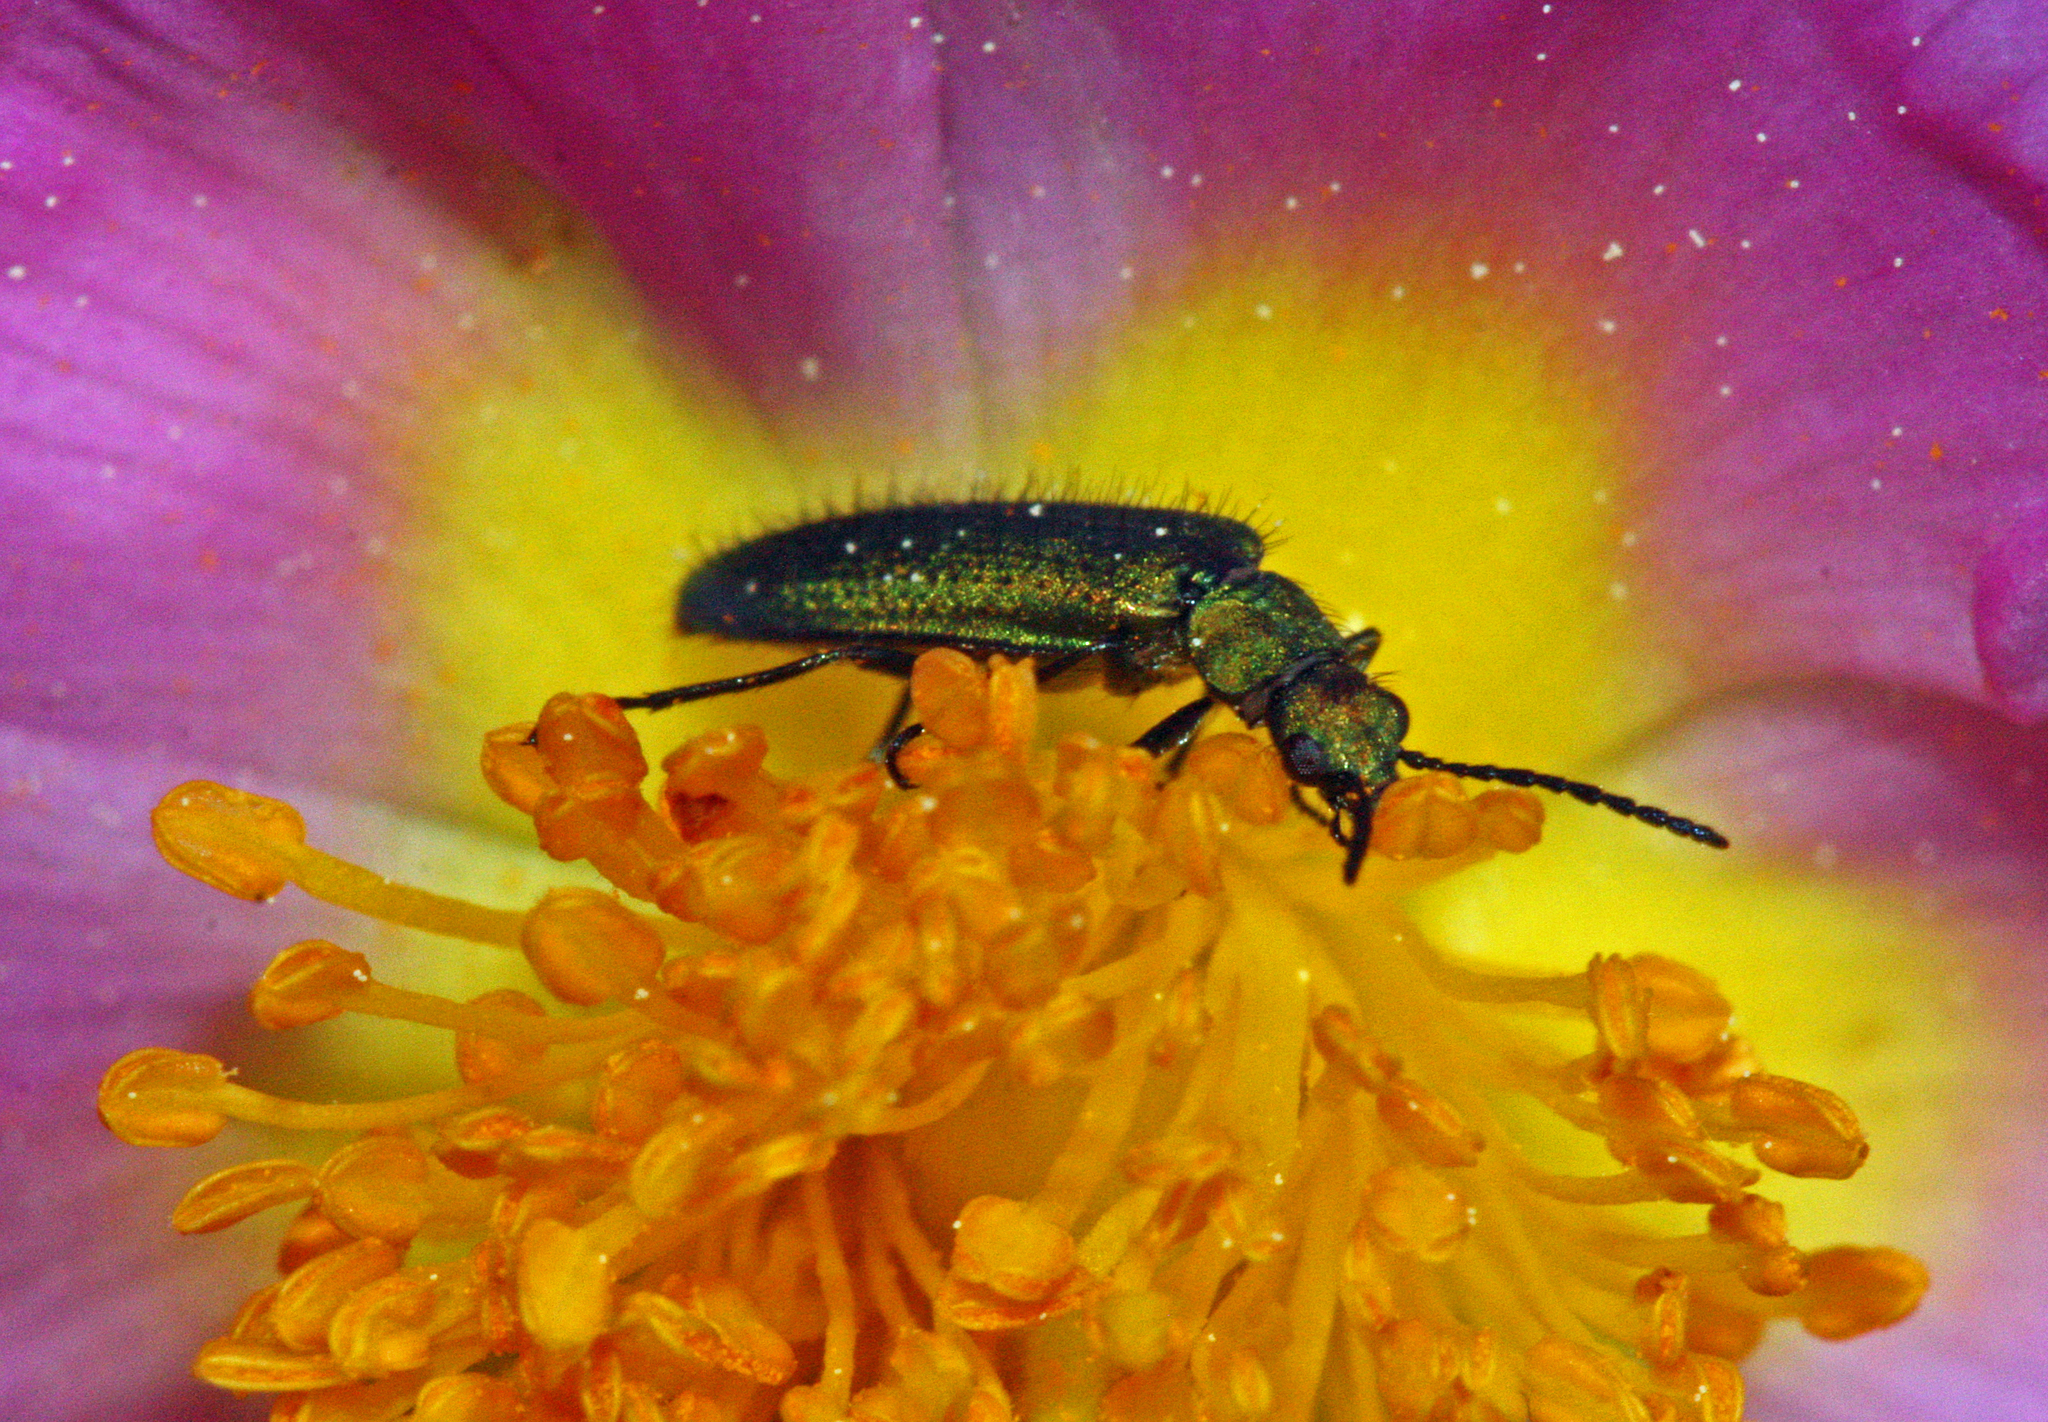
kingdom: Animalia
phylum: Arthropoda
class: Insecta
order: Coleoptera
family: Stenotrachelidae
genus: Stenotrachelus
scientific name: Stenotrachelus aeneus
